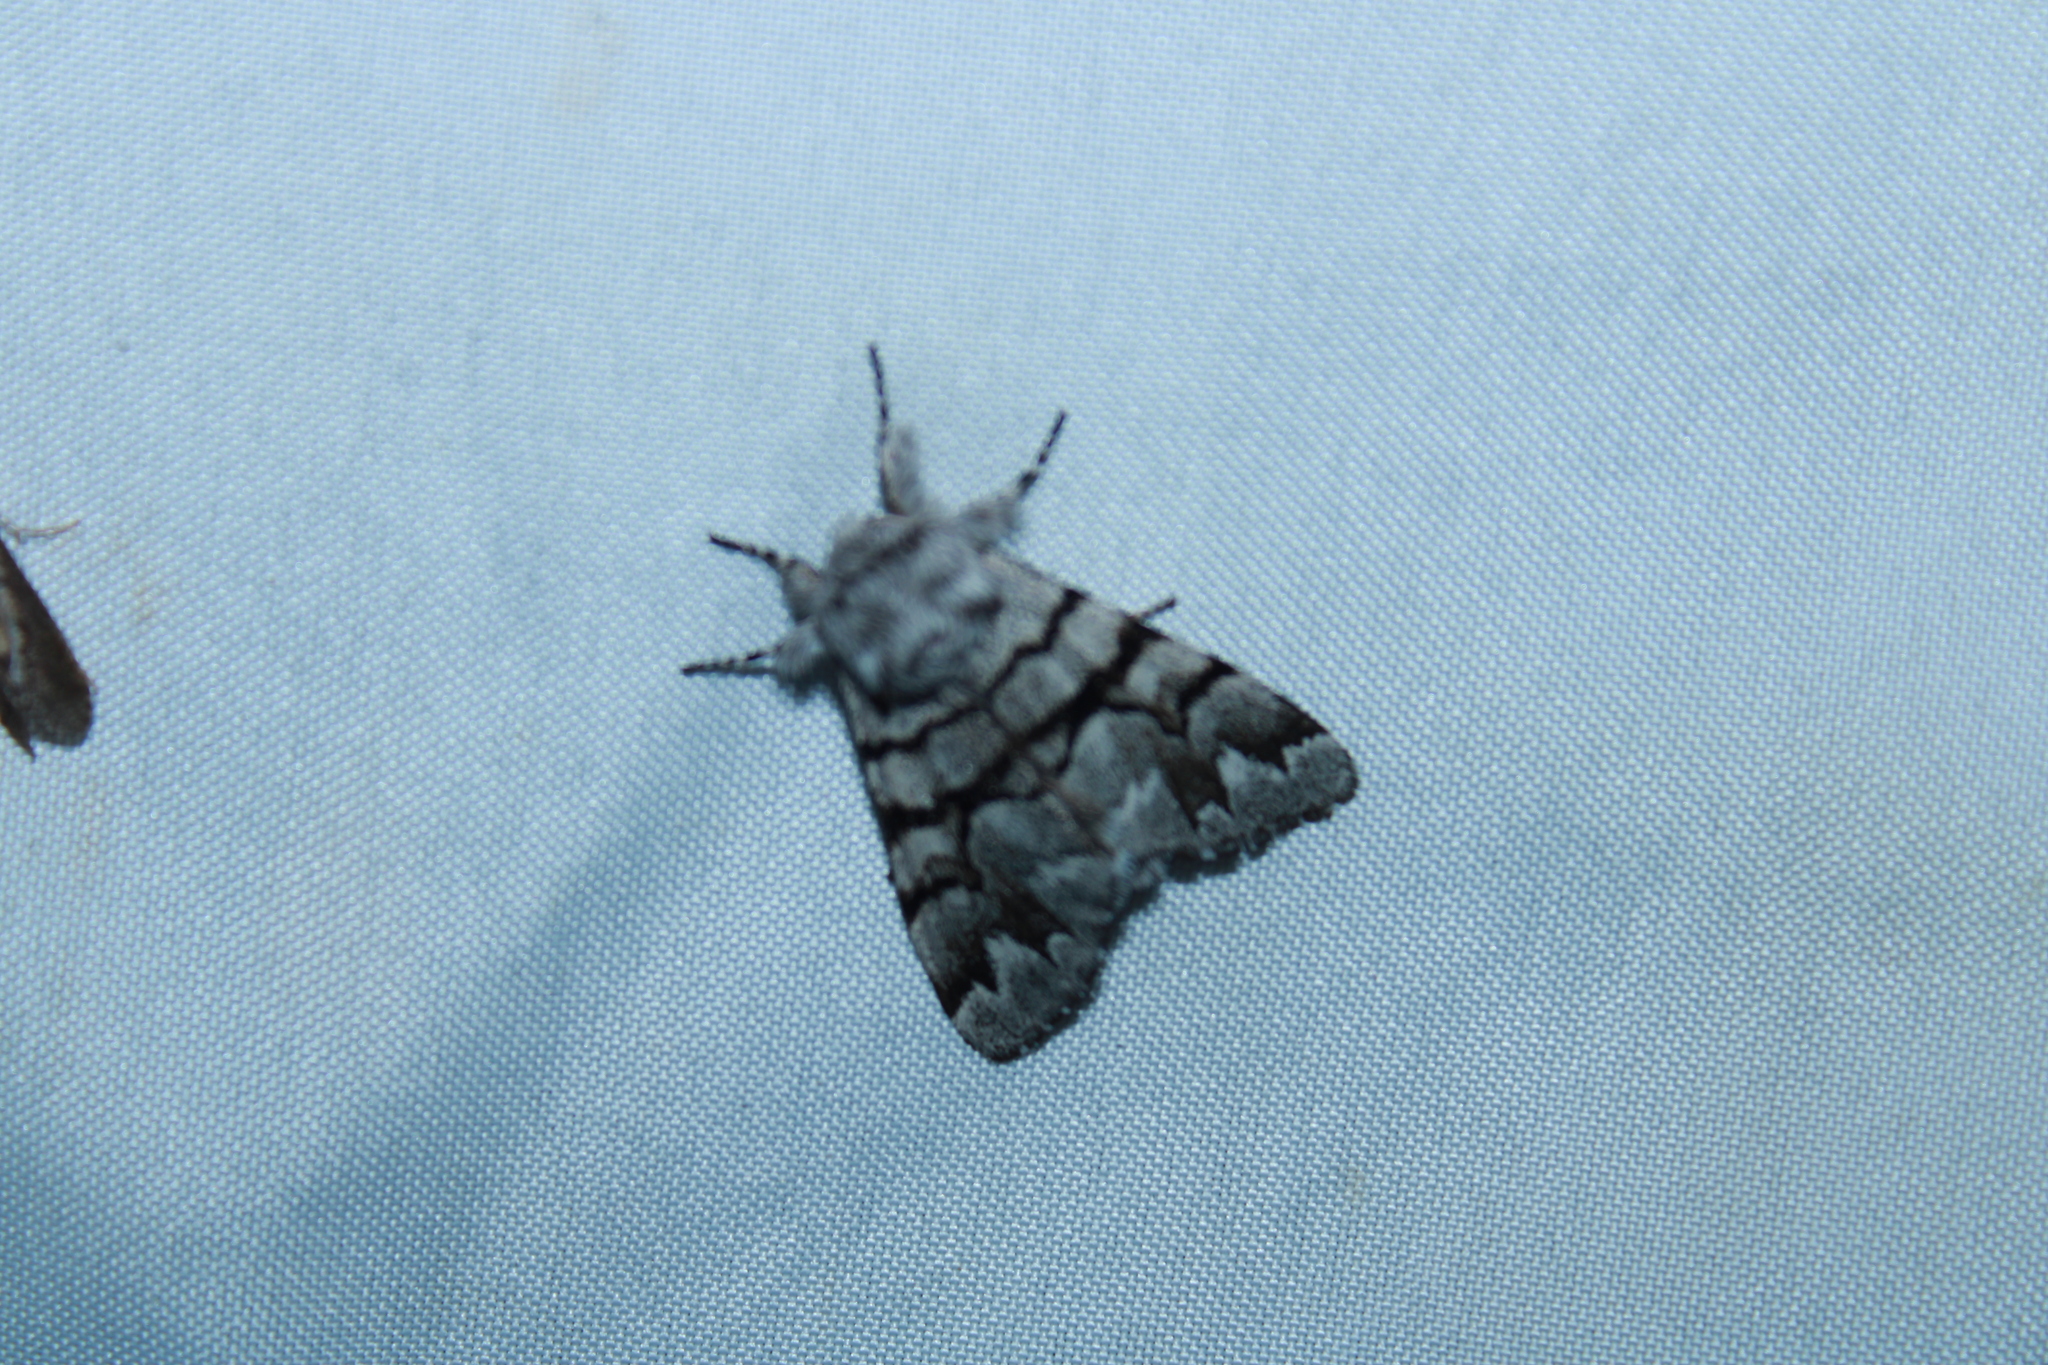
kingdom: Animalia
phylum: Arthropoda
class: Insecta
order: Lepidoptera
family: Noctuidae
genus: Panthea
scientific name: Panthea furcilla
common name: Eastern panthea moth
